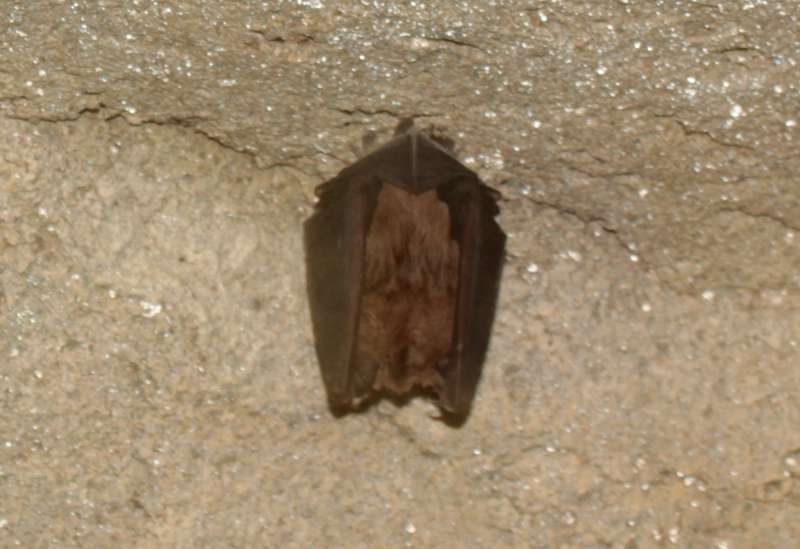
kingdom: Animalia
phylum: Chordata
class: Mammalia
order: Chiroptera
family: Rhinolophidae
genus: Rhinolophus
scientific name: Rhinolophus
